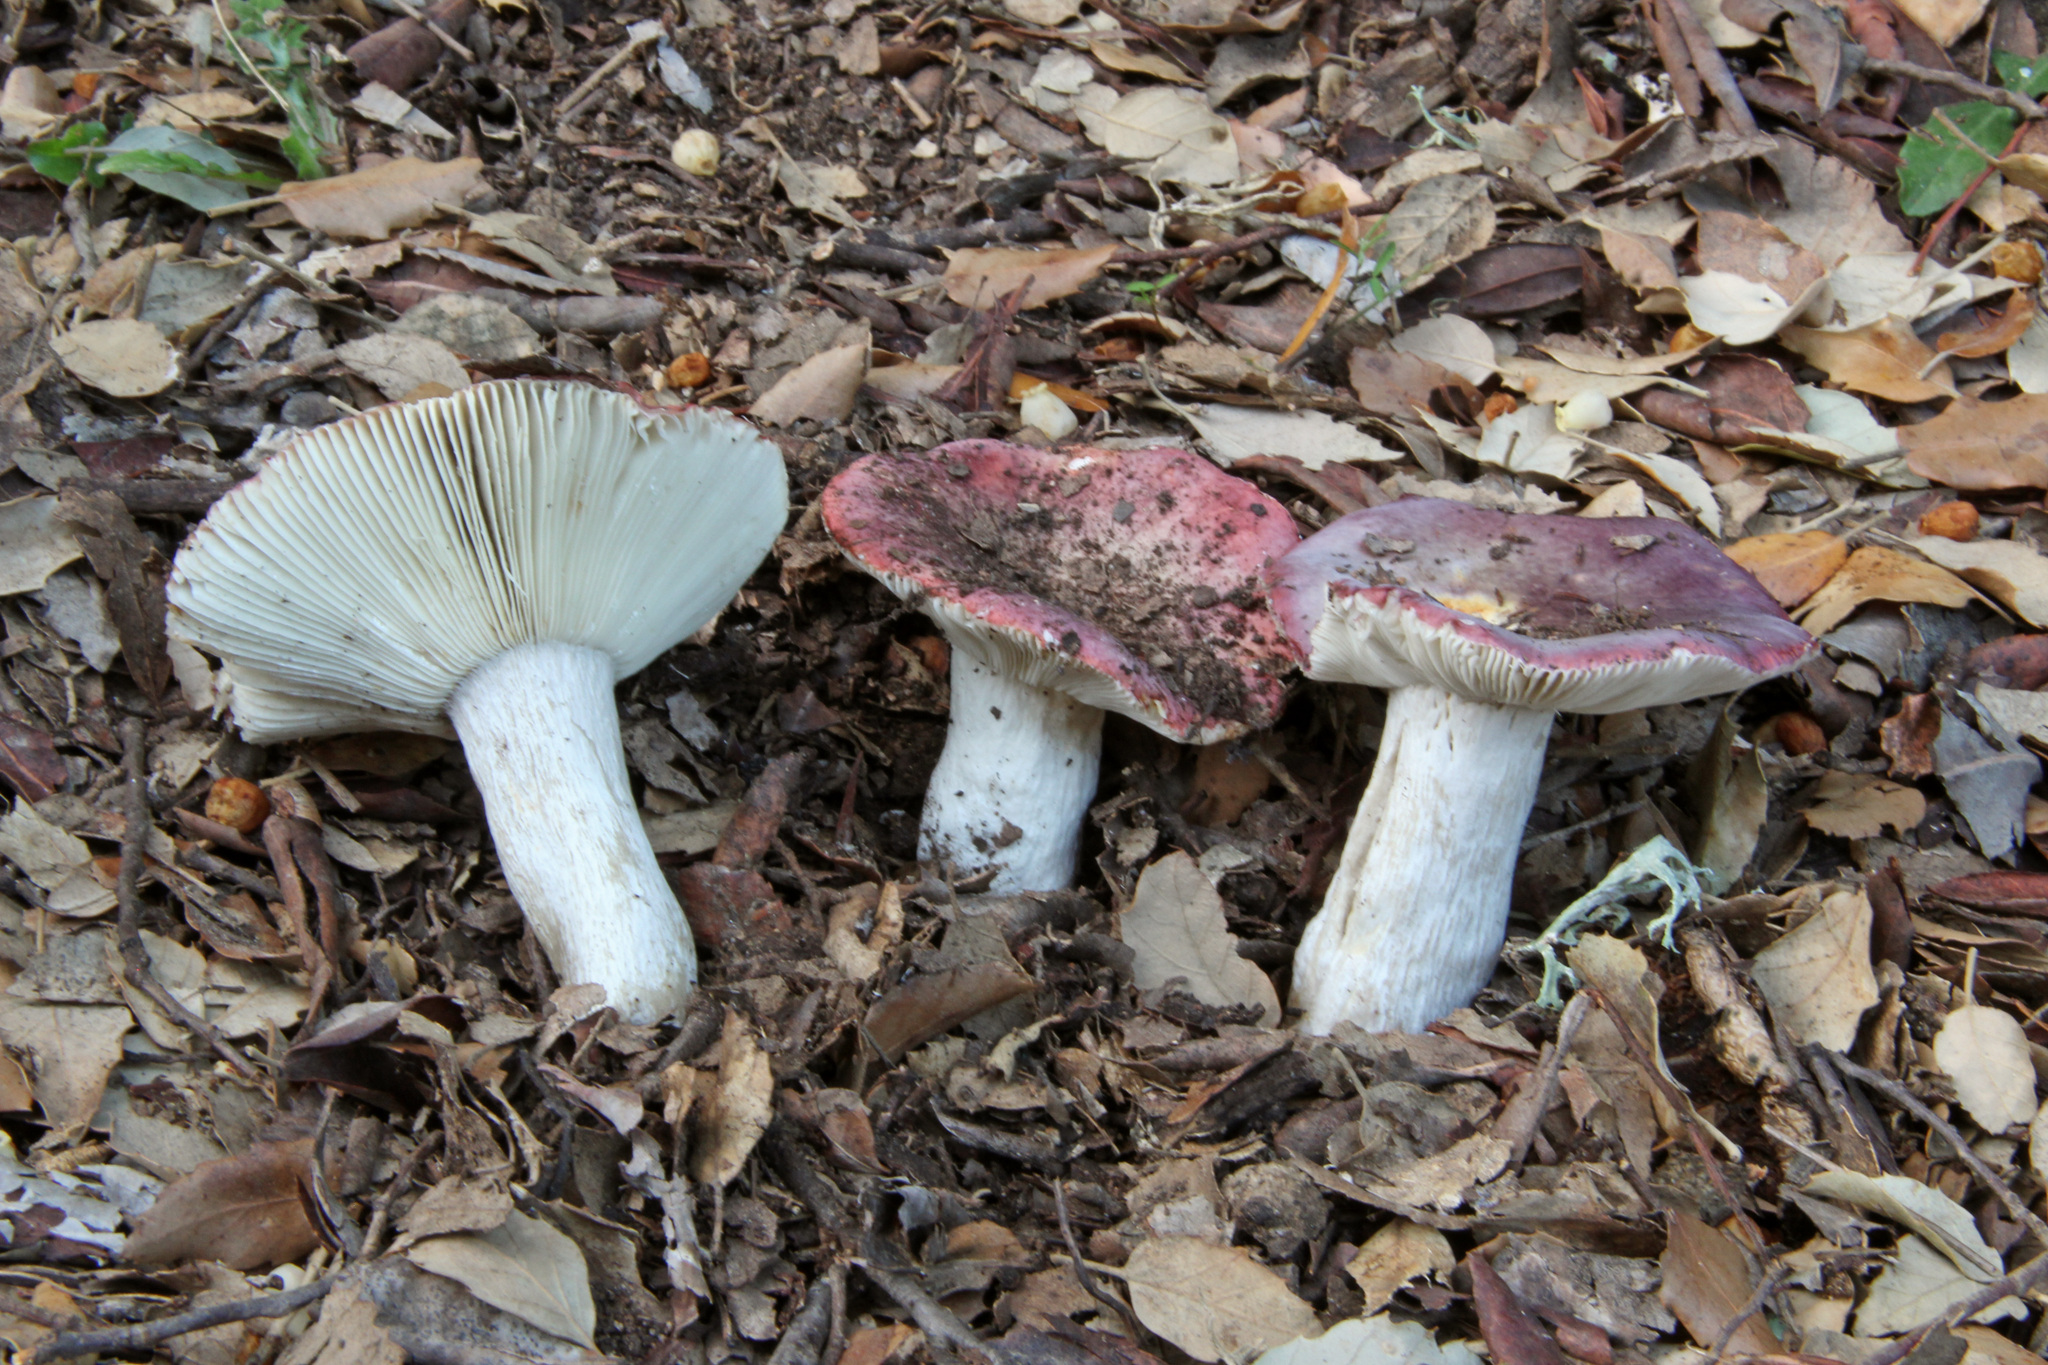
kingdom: Fungi
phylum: Basidiomycota
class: Agaricomycetes
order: Russulales
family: Russulaceae
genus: Russula
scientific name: Russula atropurpurea
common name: Blackish-purple russula
